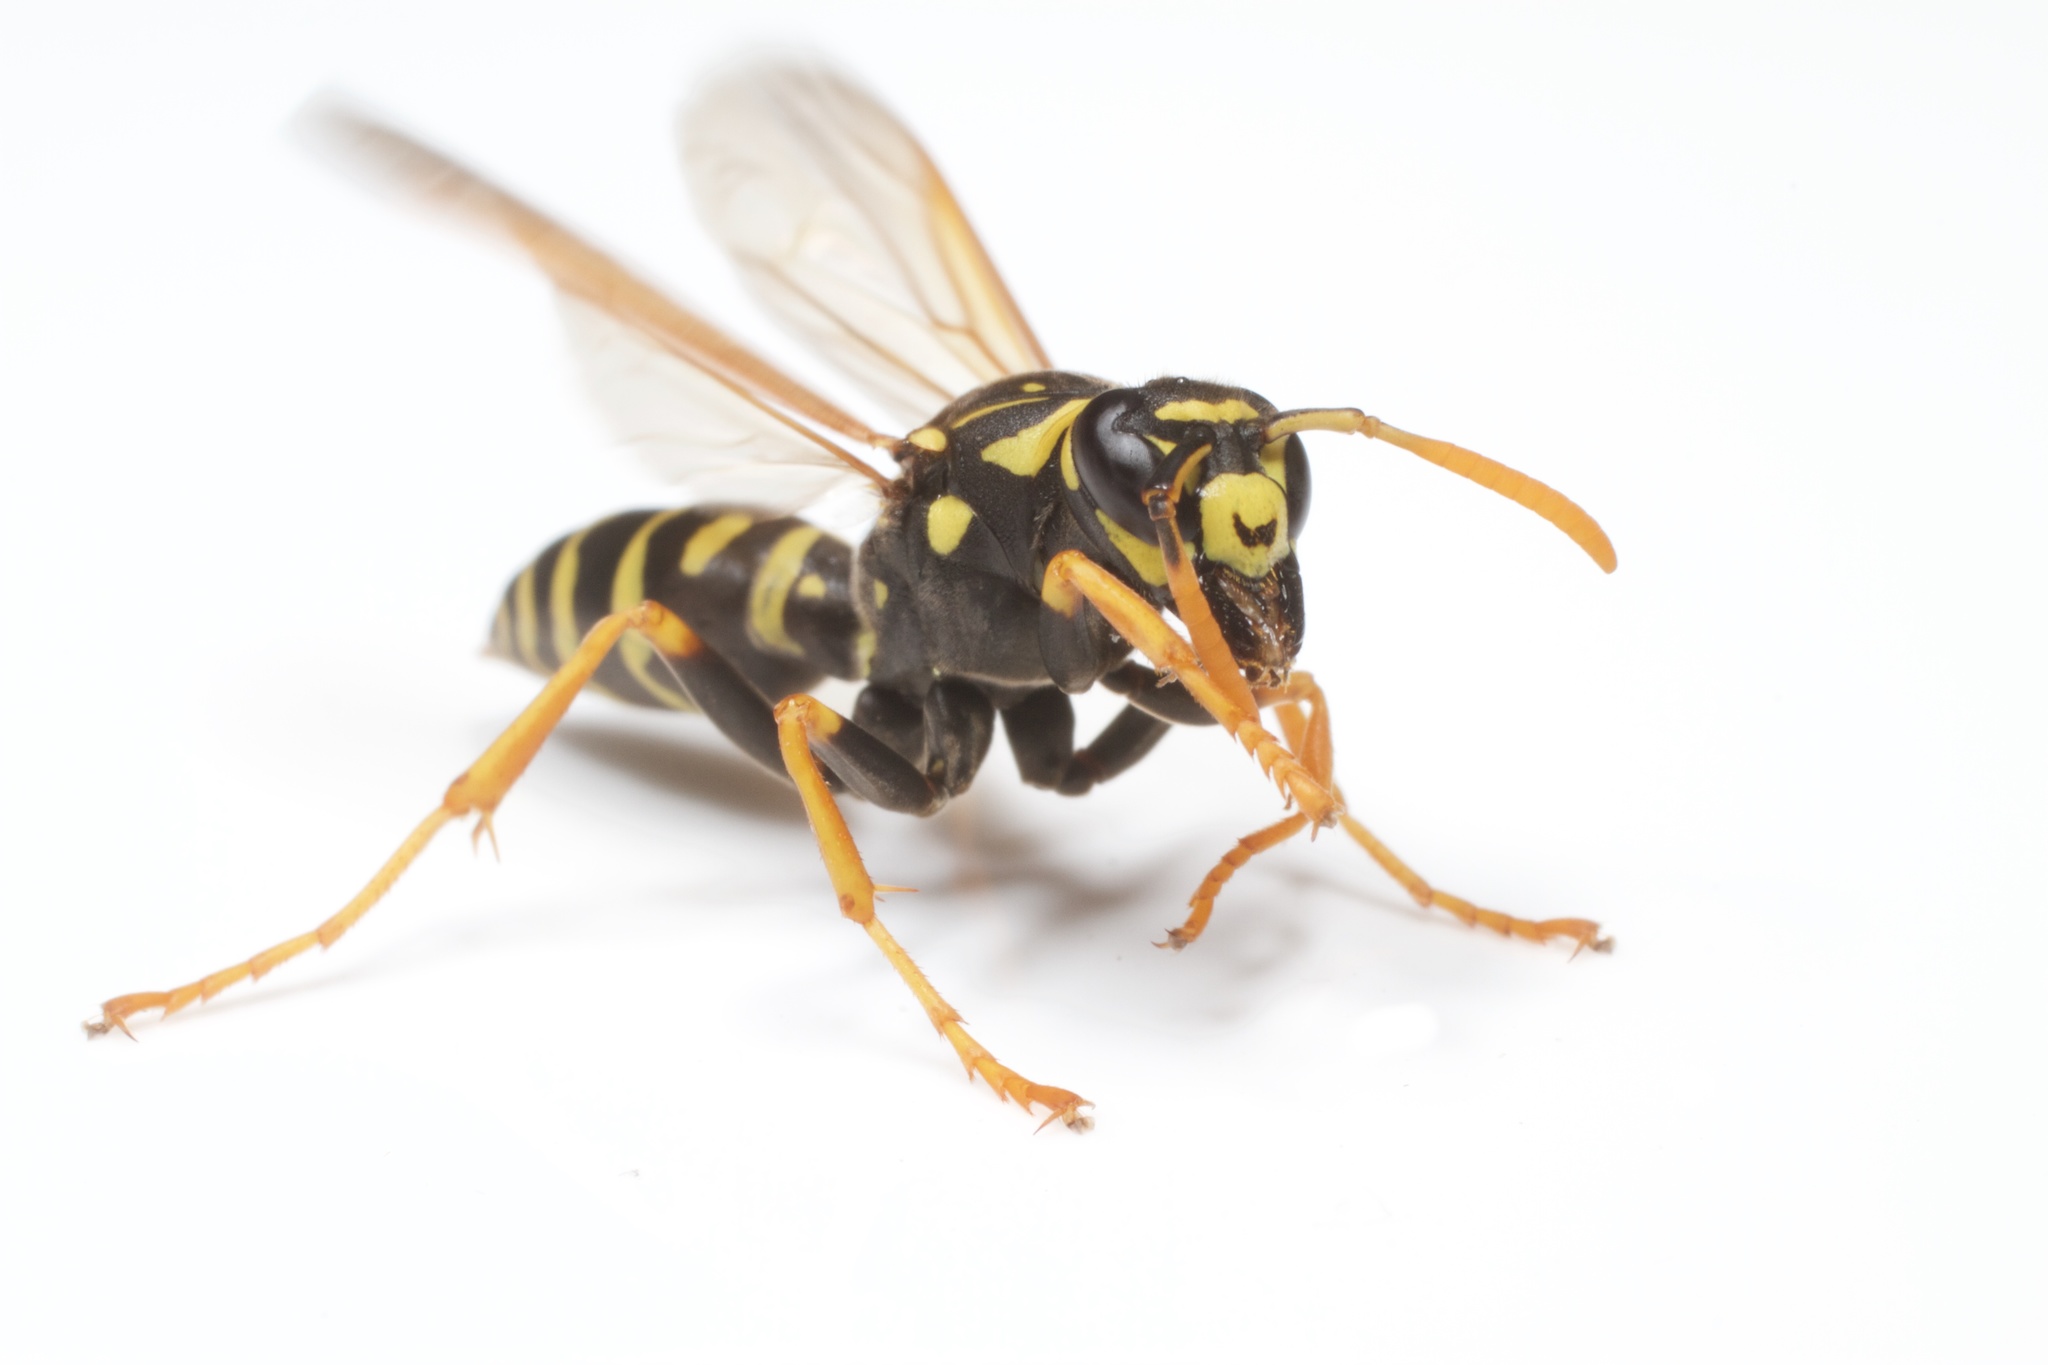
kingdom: Animalia
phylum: Arthropoda
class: Insecta
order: Hymenoptera
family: Eumenidae
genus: Polistes
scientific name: Polistes dominula
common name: Paper wasp
